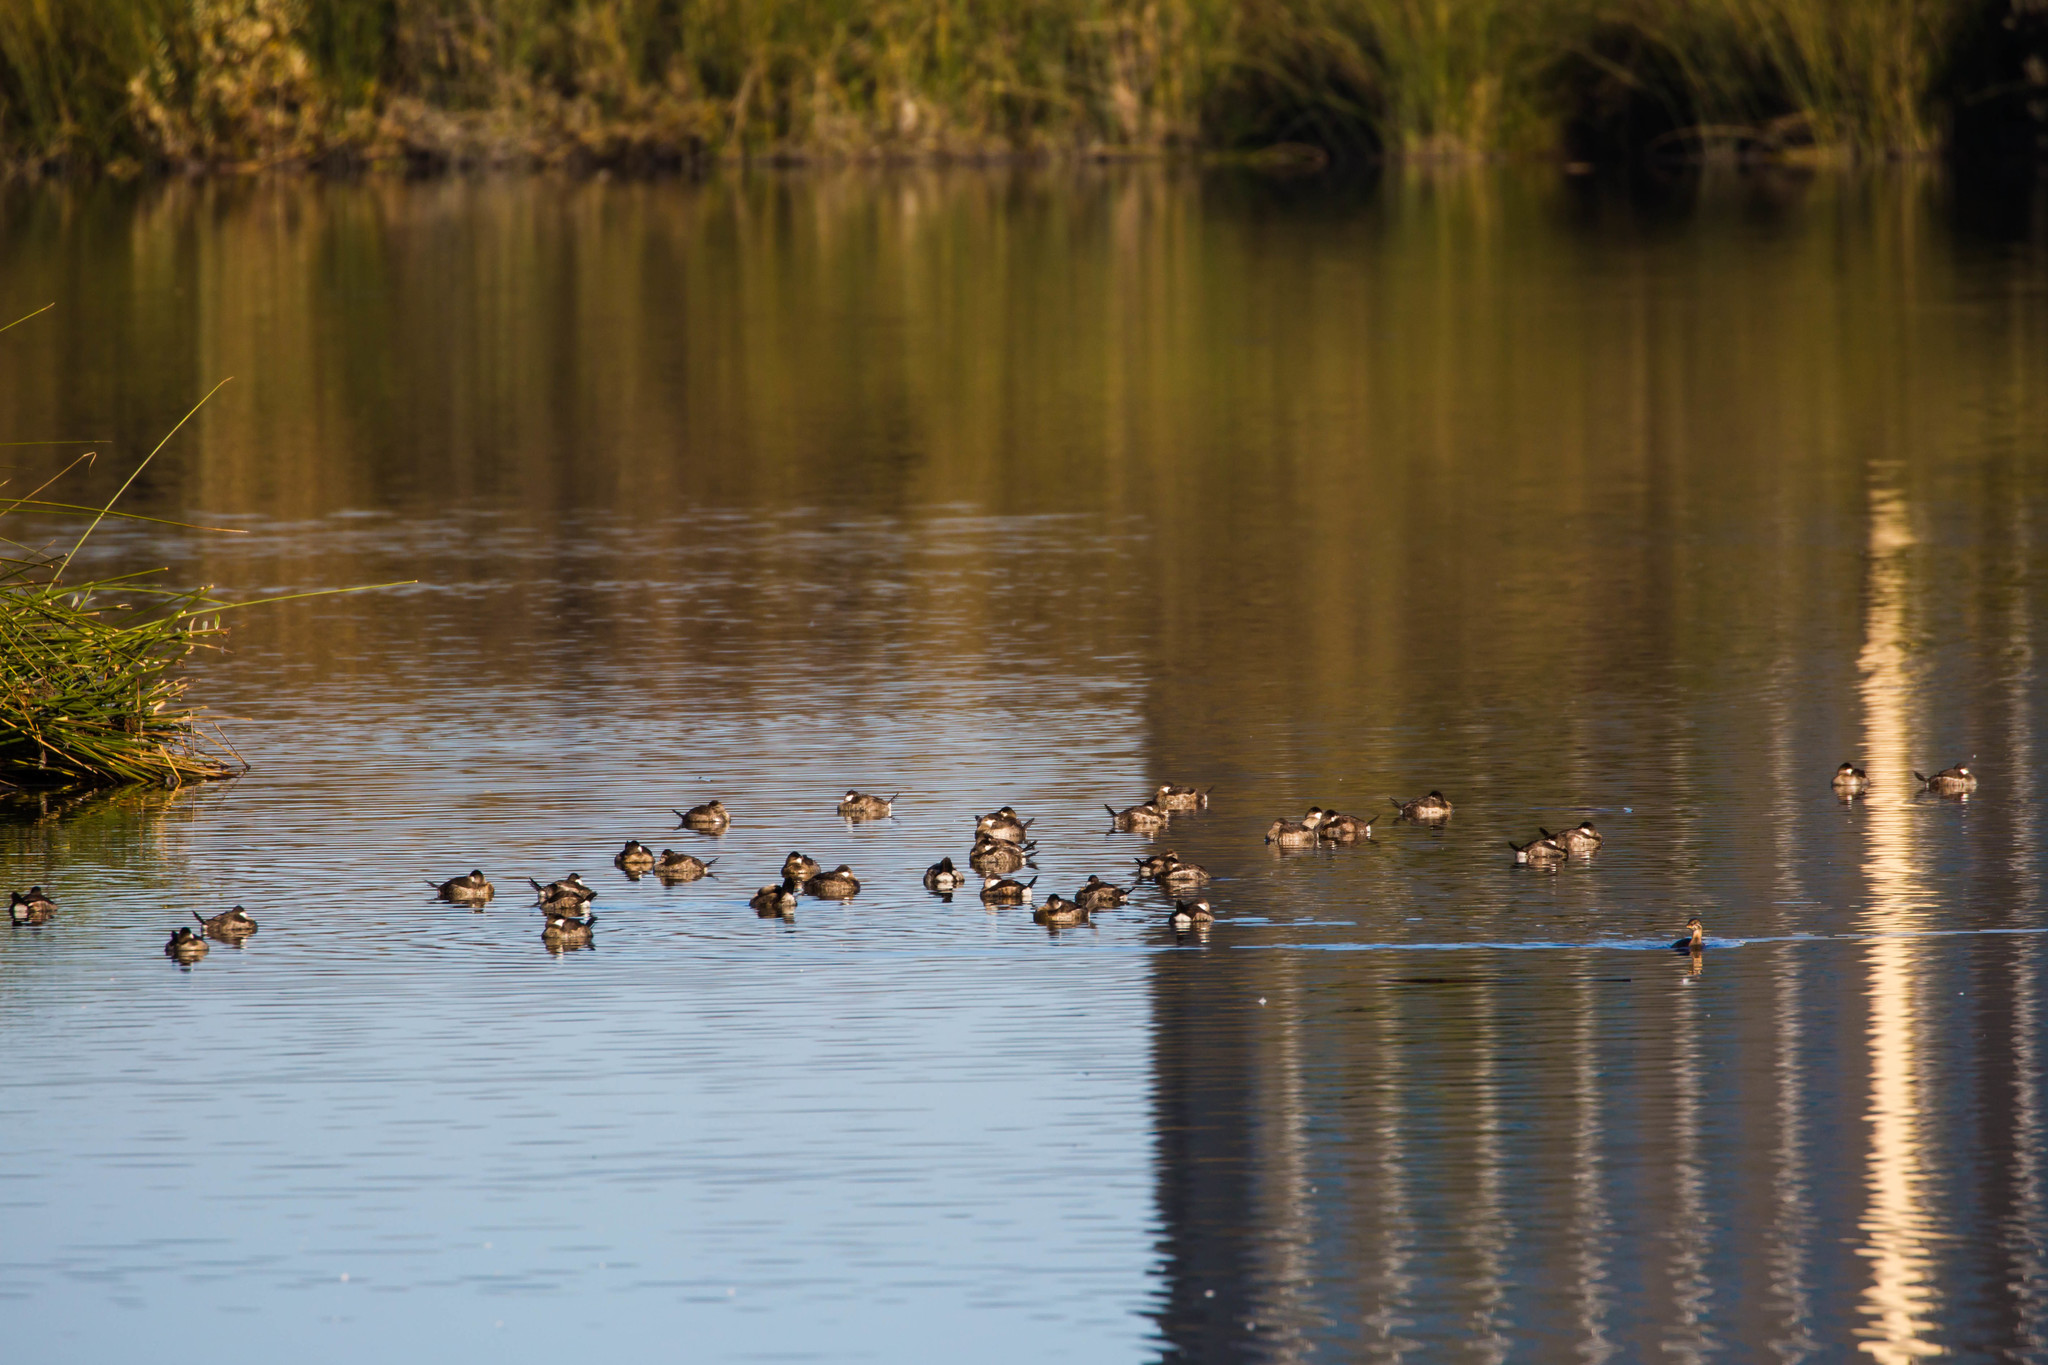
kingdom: Animalia
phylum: Chordata
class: Aves
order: Anseriformes
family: Anatidae
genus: Oxyura
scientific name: Oxyura jamaicensis
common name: Ruddy duck
